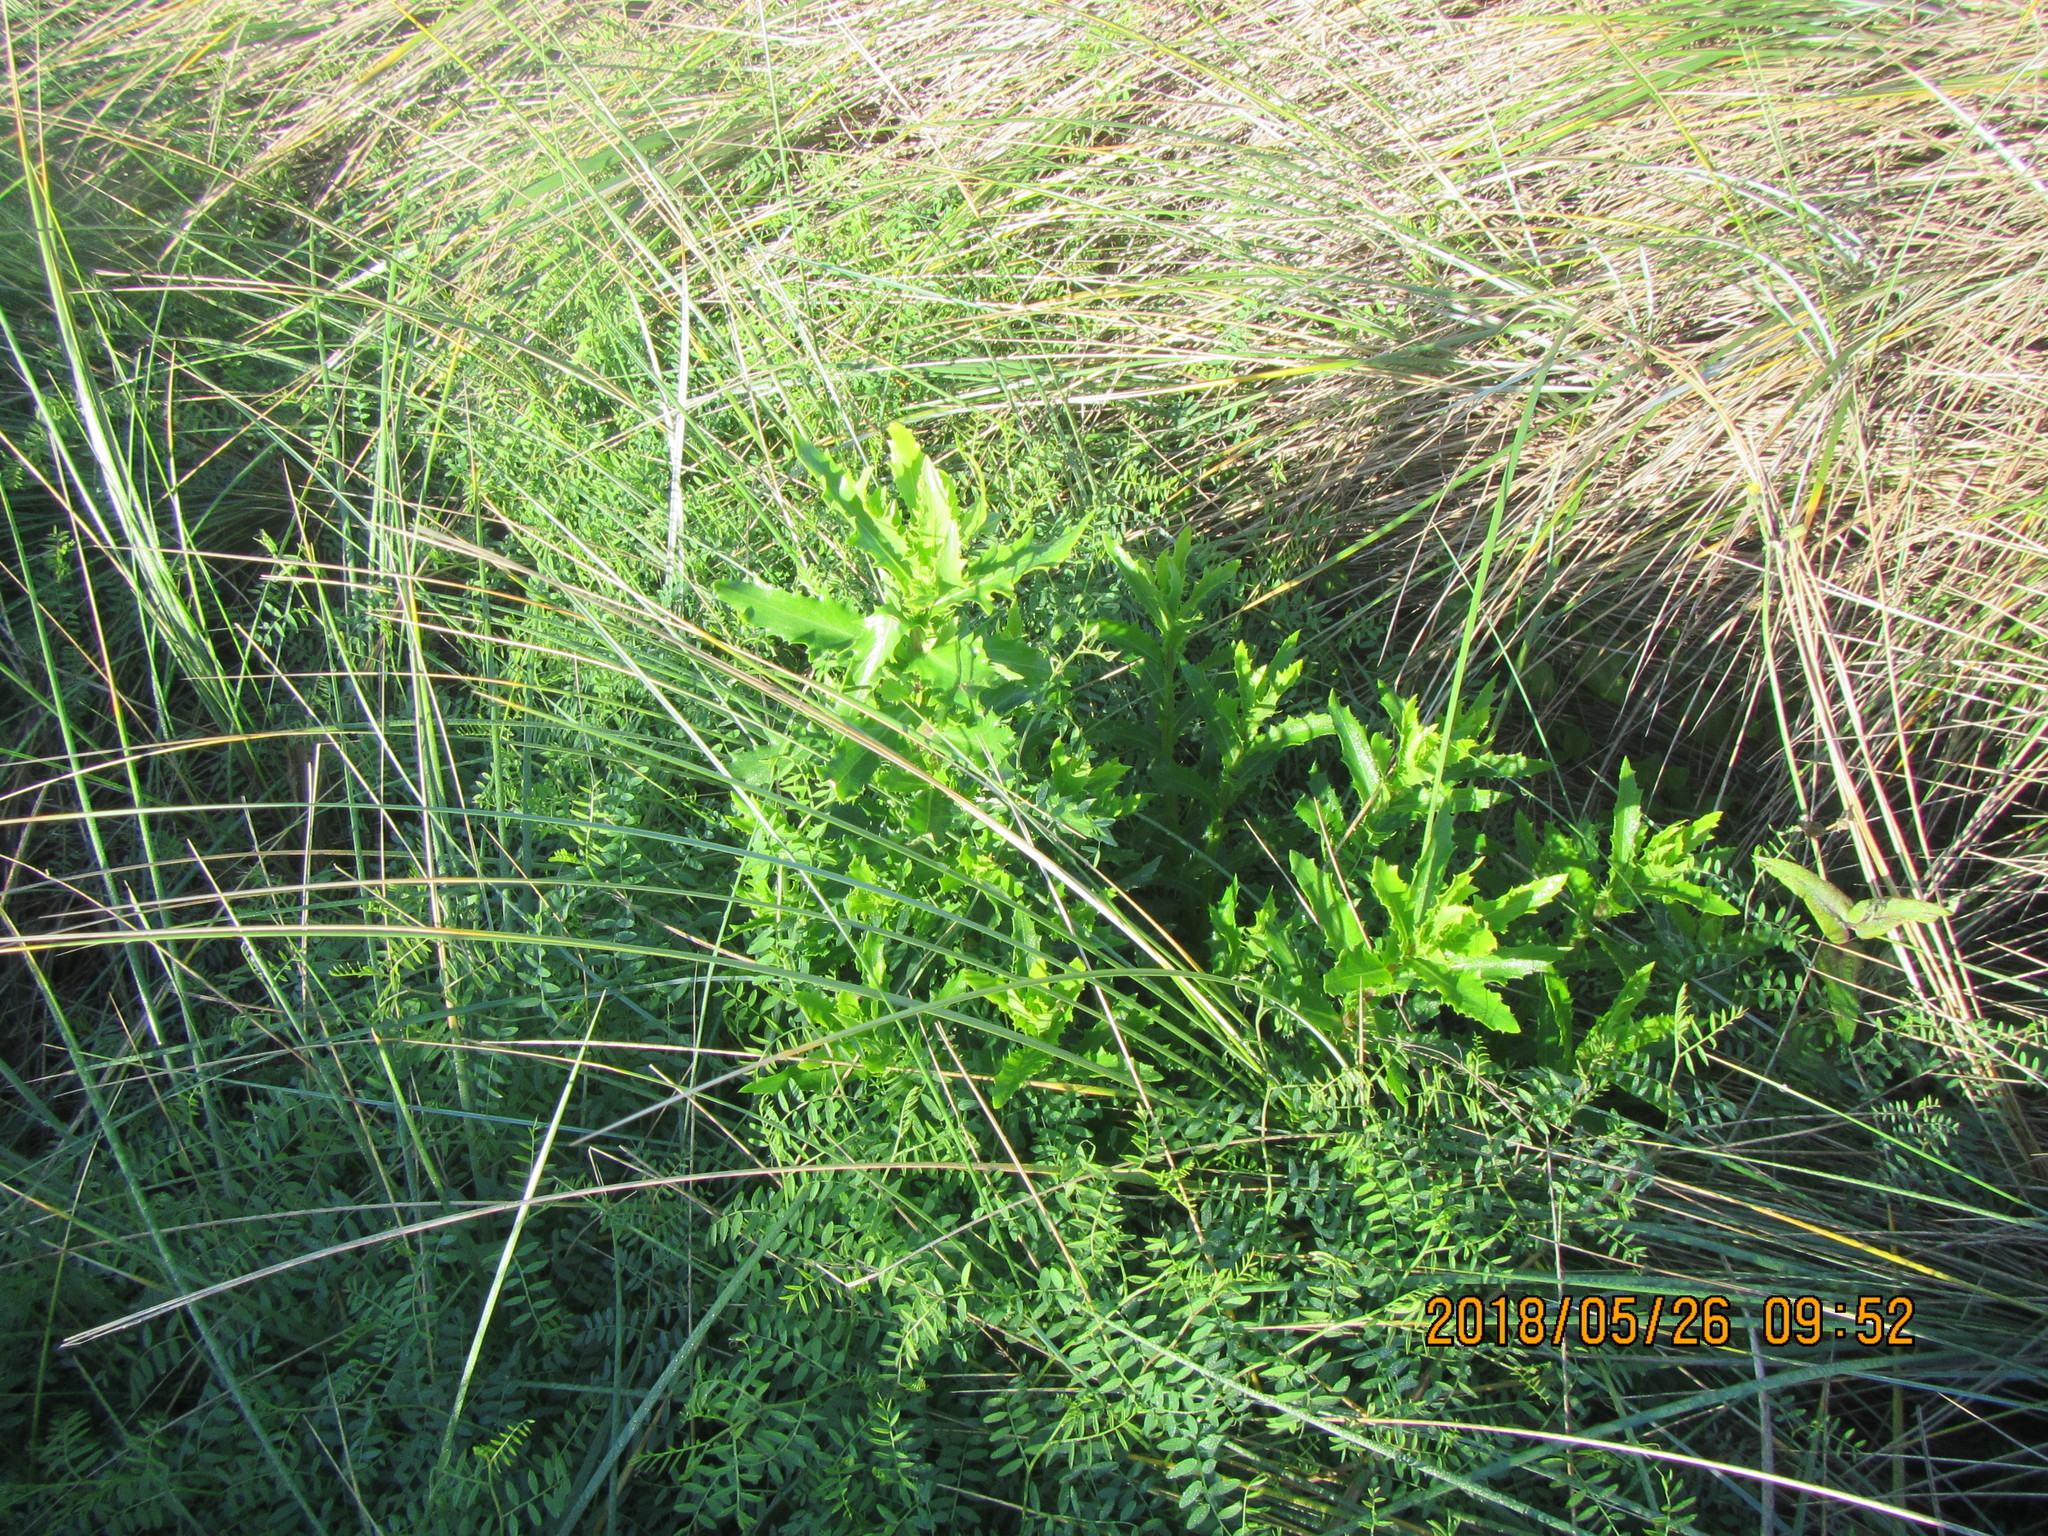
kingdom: Plantae
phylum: Tracheophyta
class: Magnoliopsida
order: Asterales
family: Asteraceae
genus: Senecio
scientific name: Senecio glastifolius
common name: Woad-leaved ragwort
